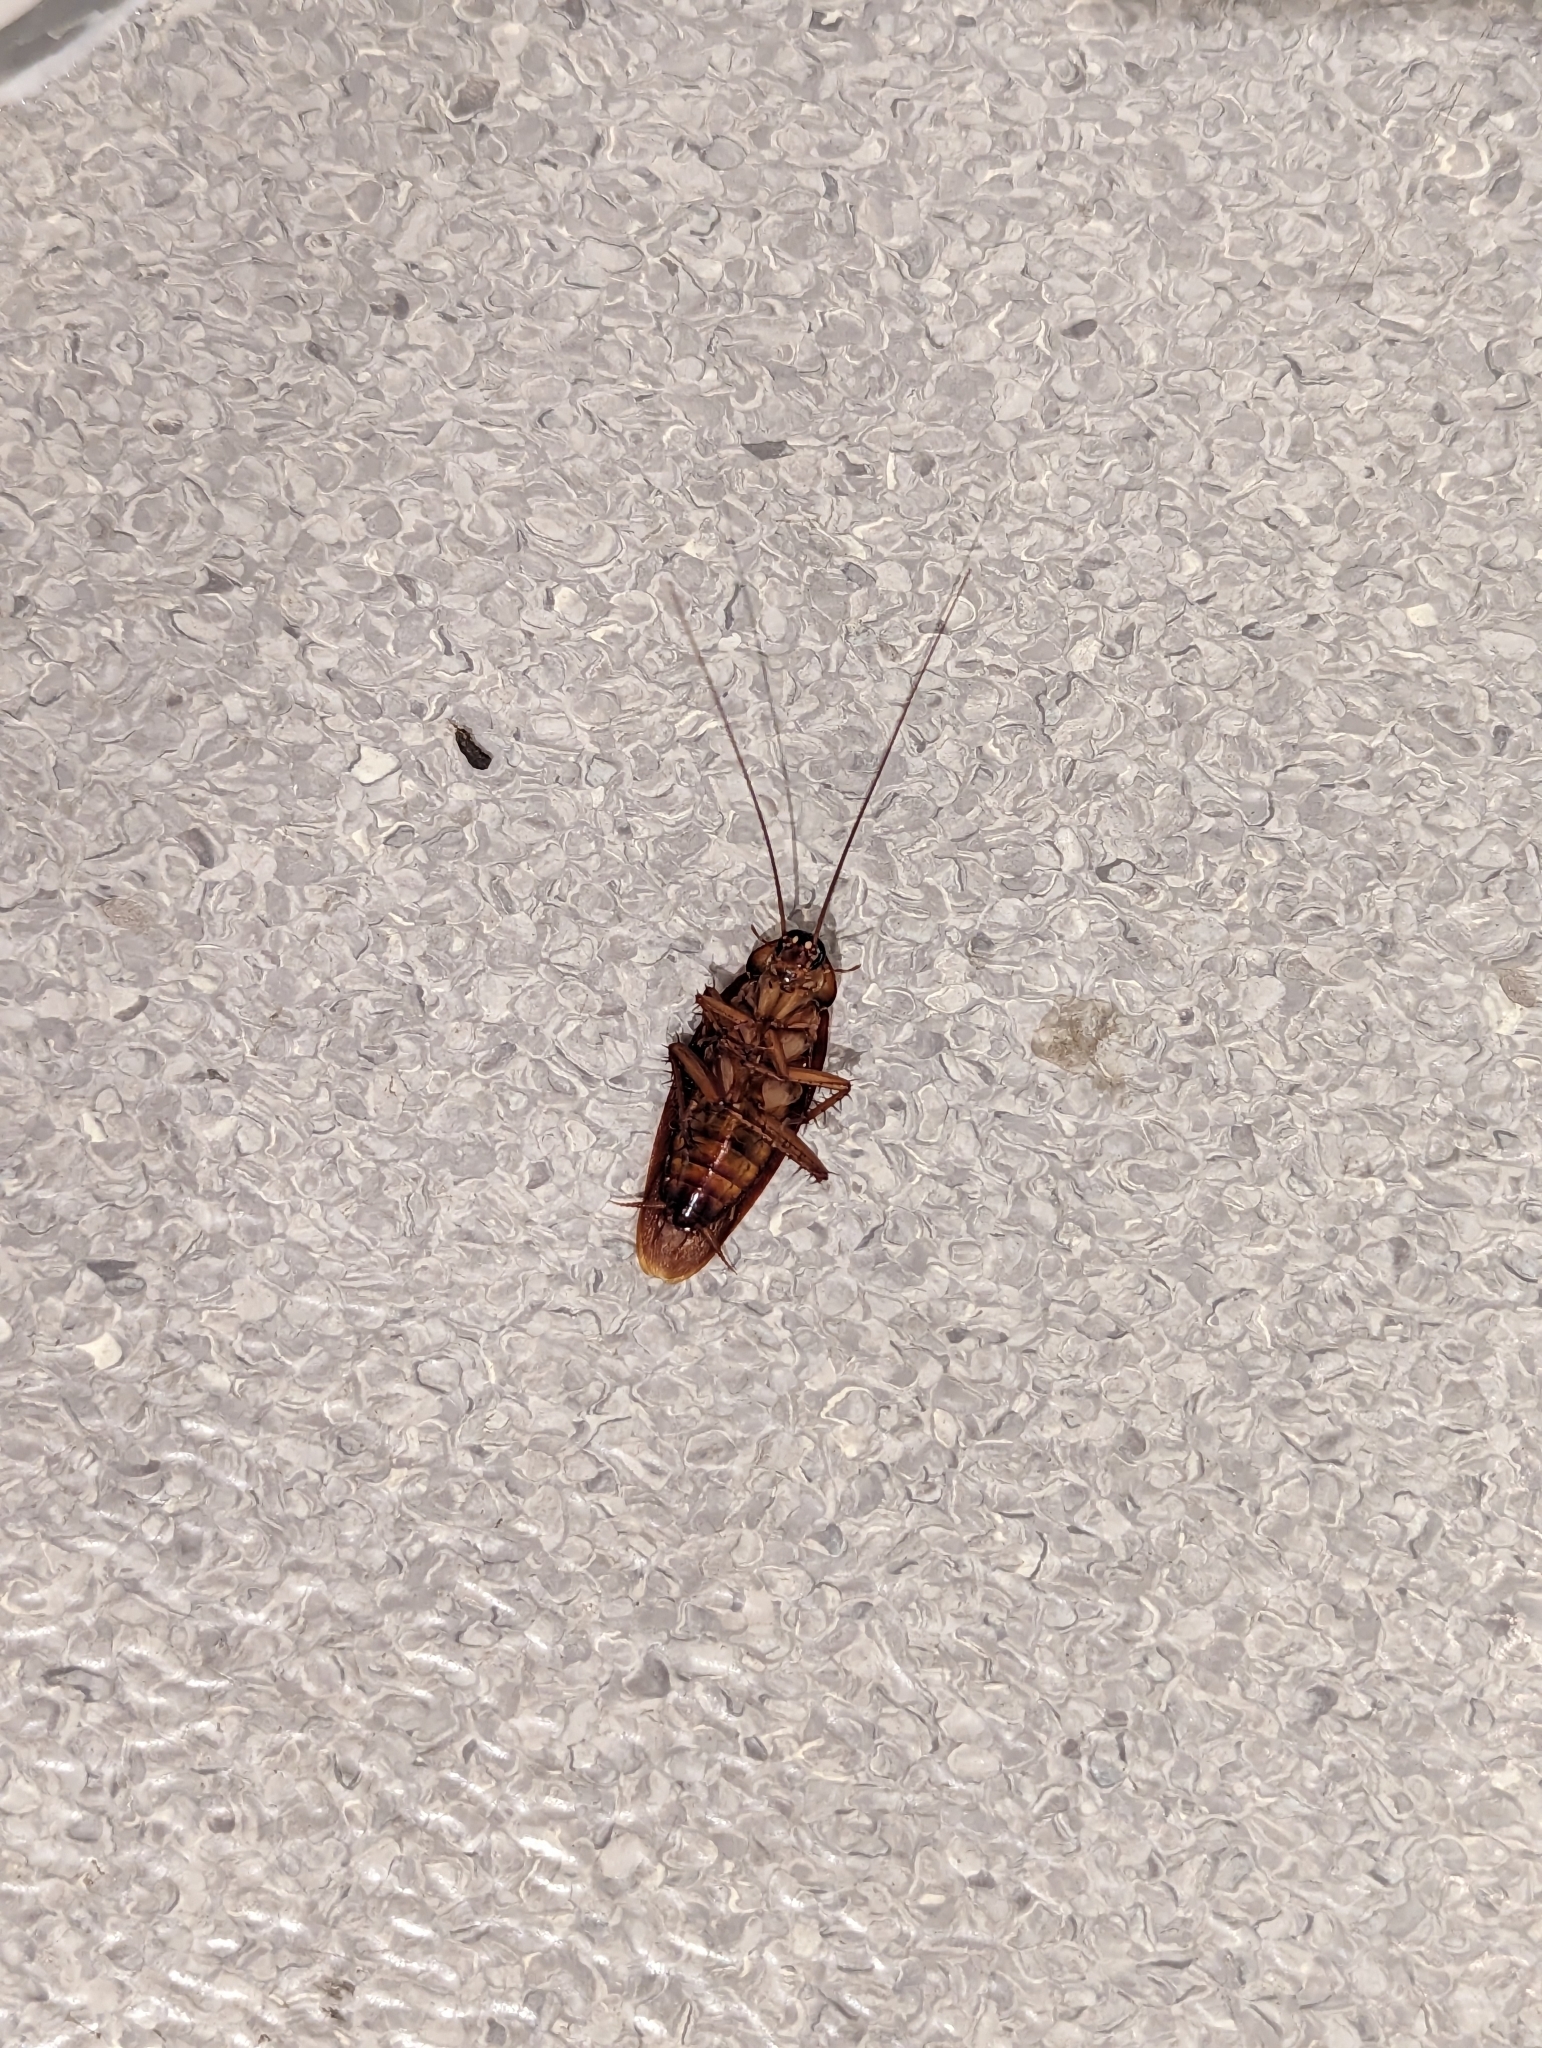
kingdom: Animalia
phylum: Arthropoda
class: Insecta
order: Blattodea
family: Blattidae
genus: Periplaneta
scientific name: Periplaneta americana
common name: American cockroach
